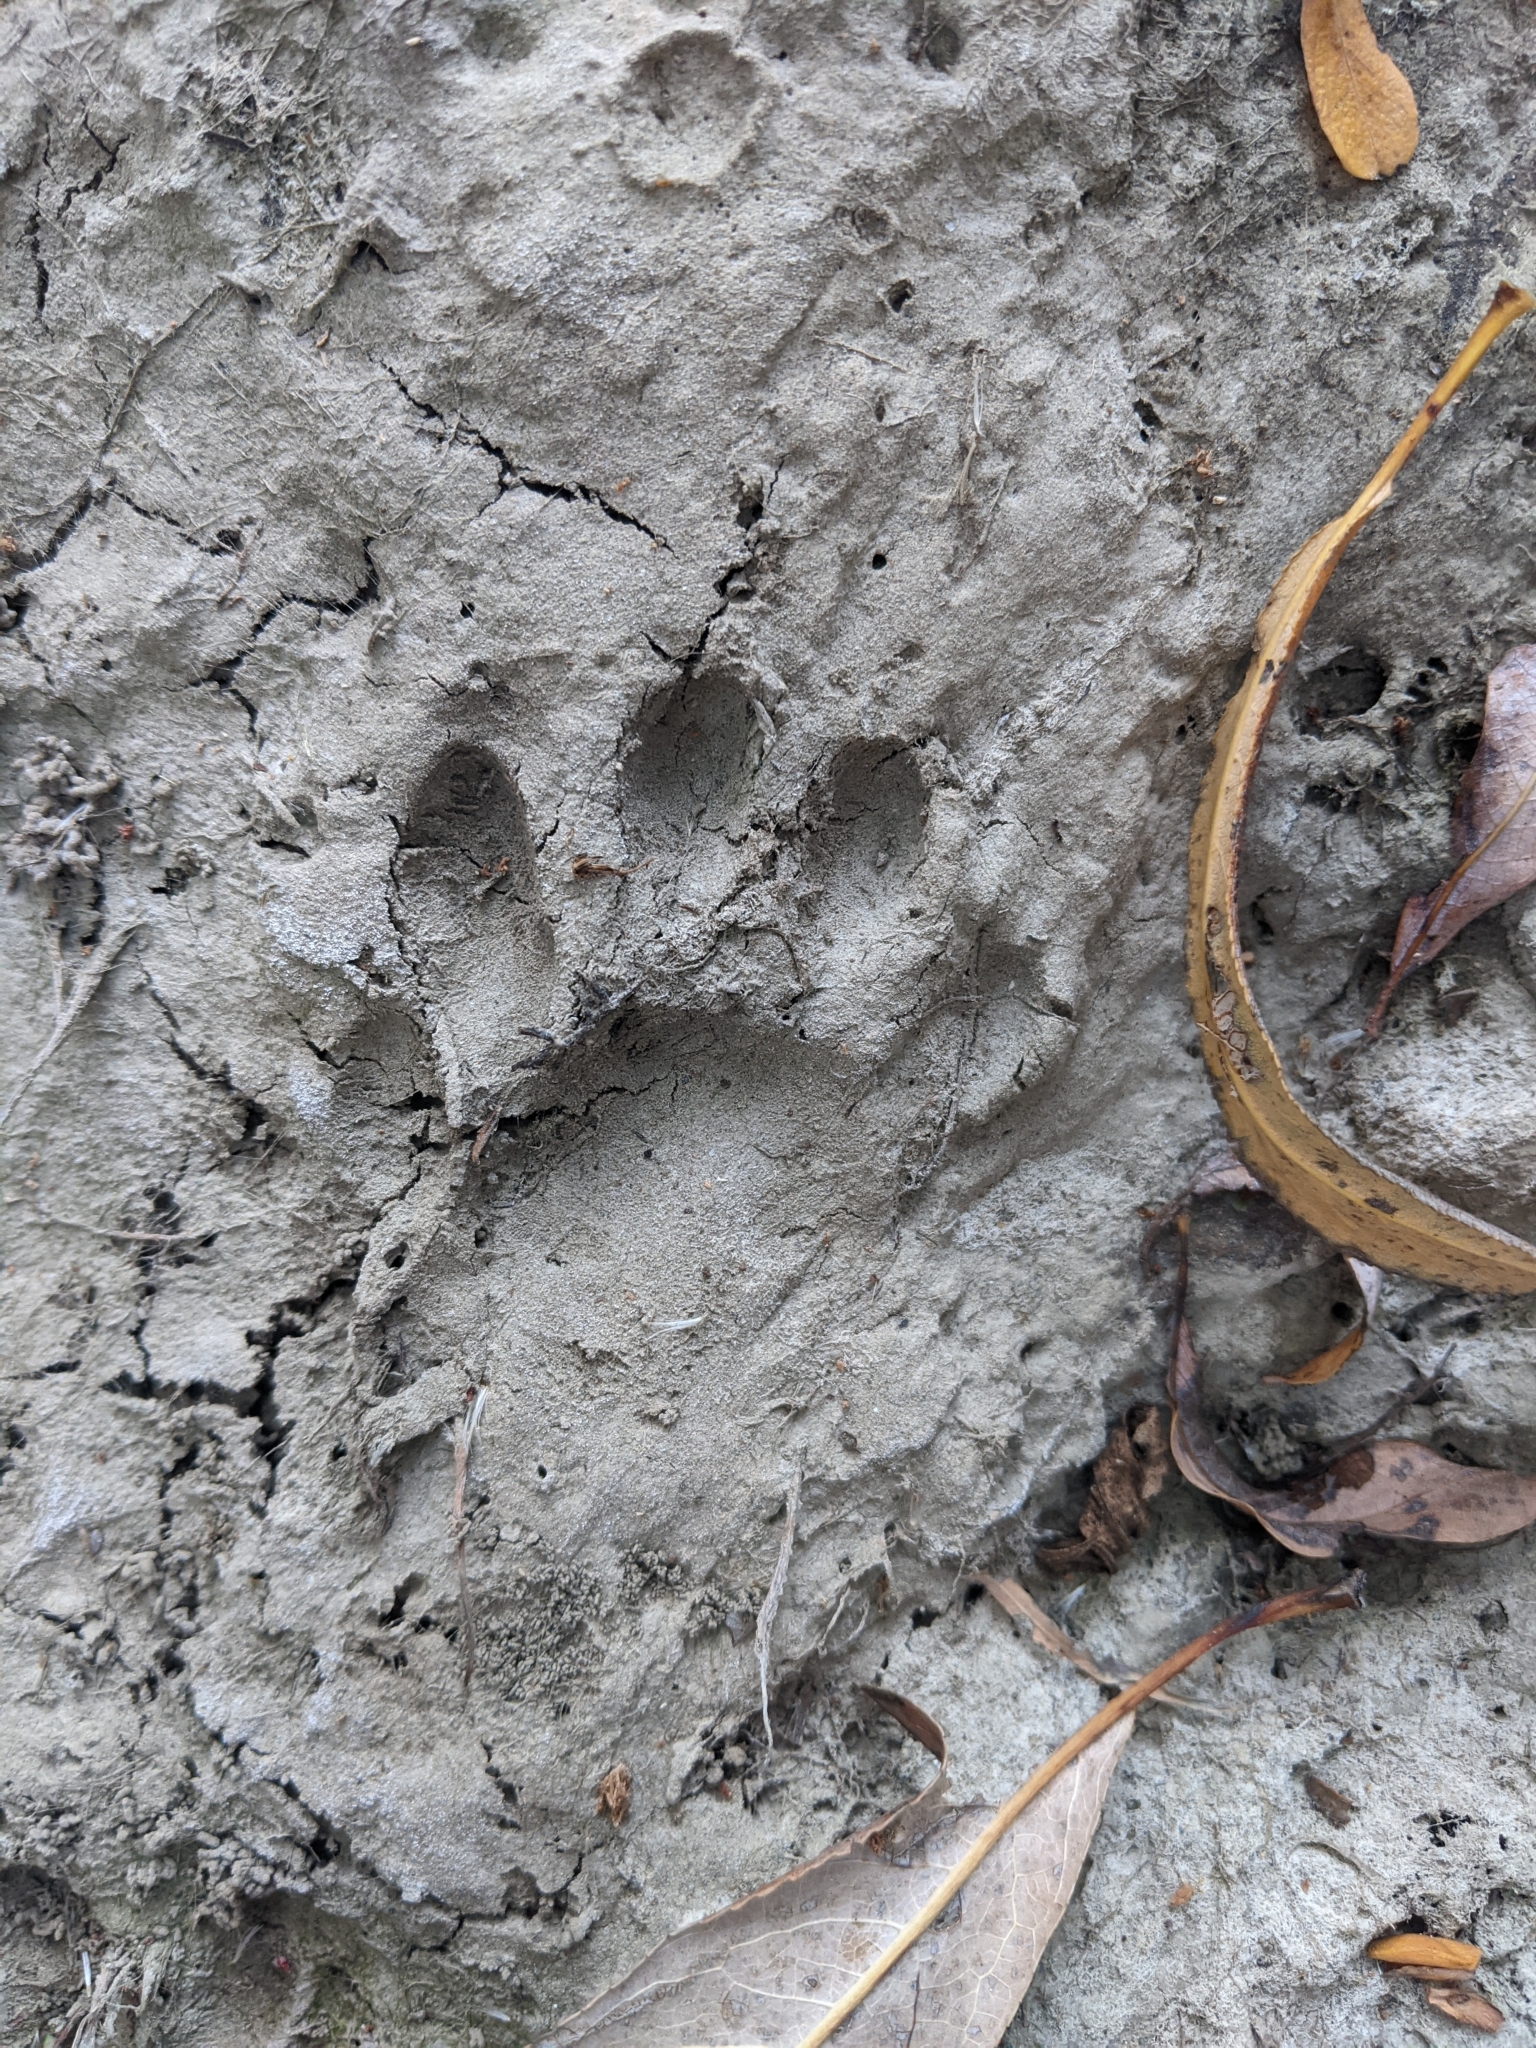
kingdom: Animalia
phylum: Chordata
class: Mammalia
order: Carnivora
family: Procyonidae
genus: Procyon
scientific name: Procyon lotor
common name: Raccoon
